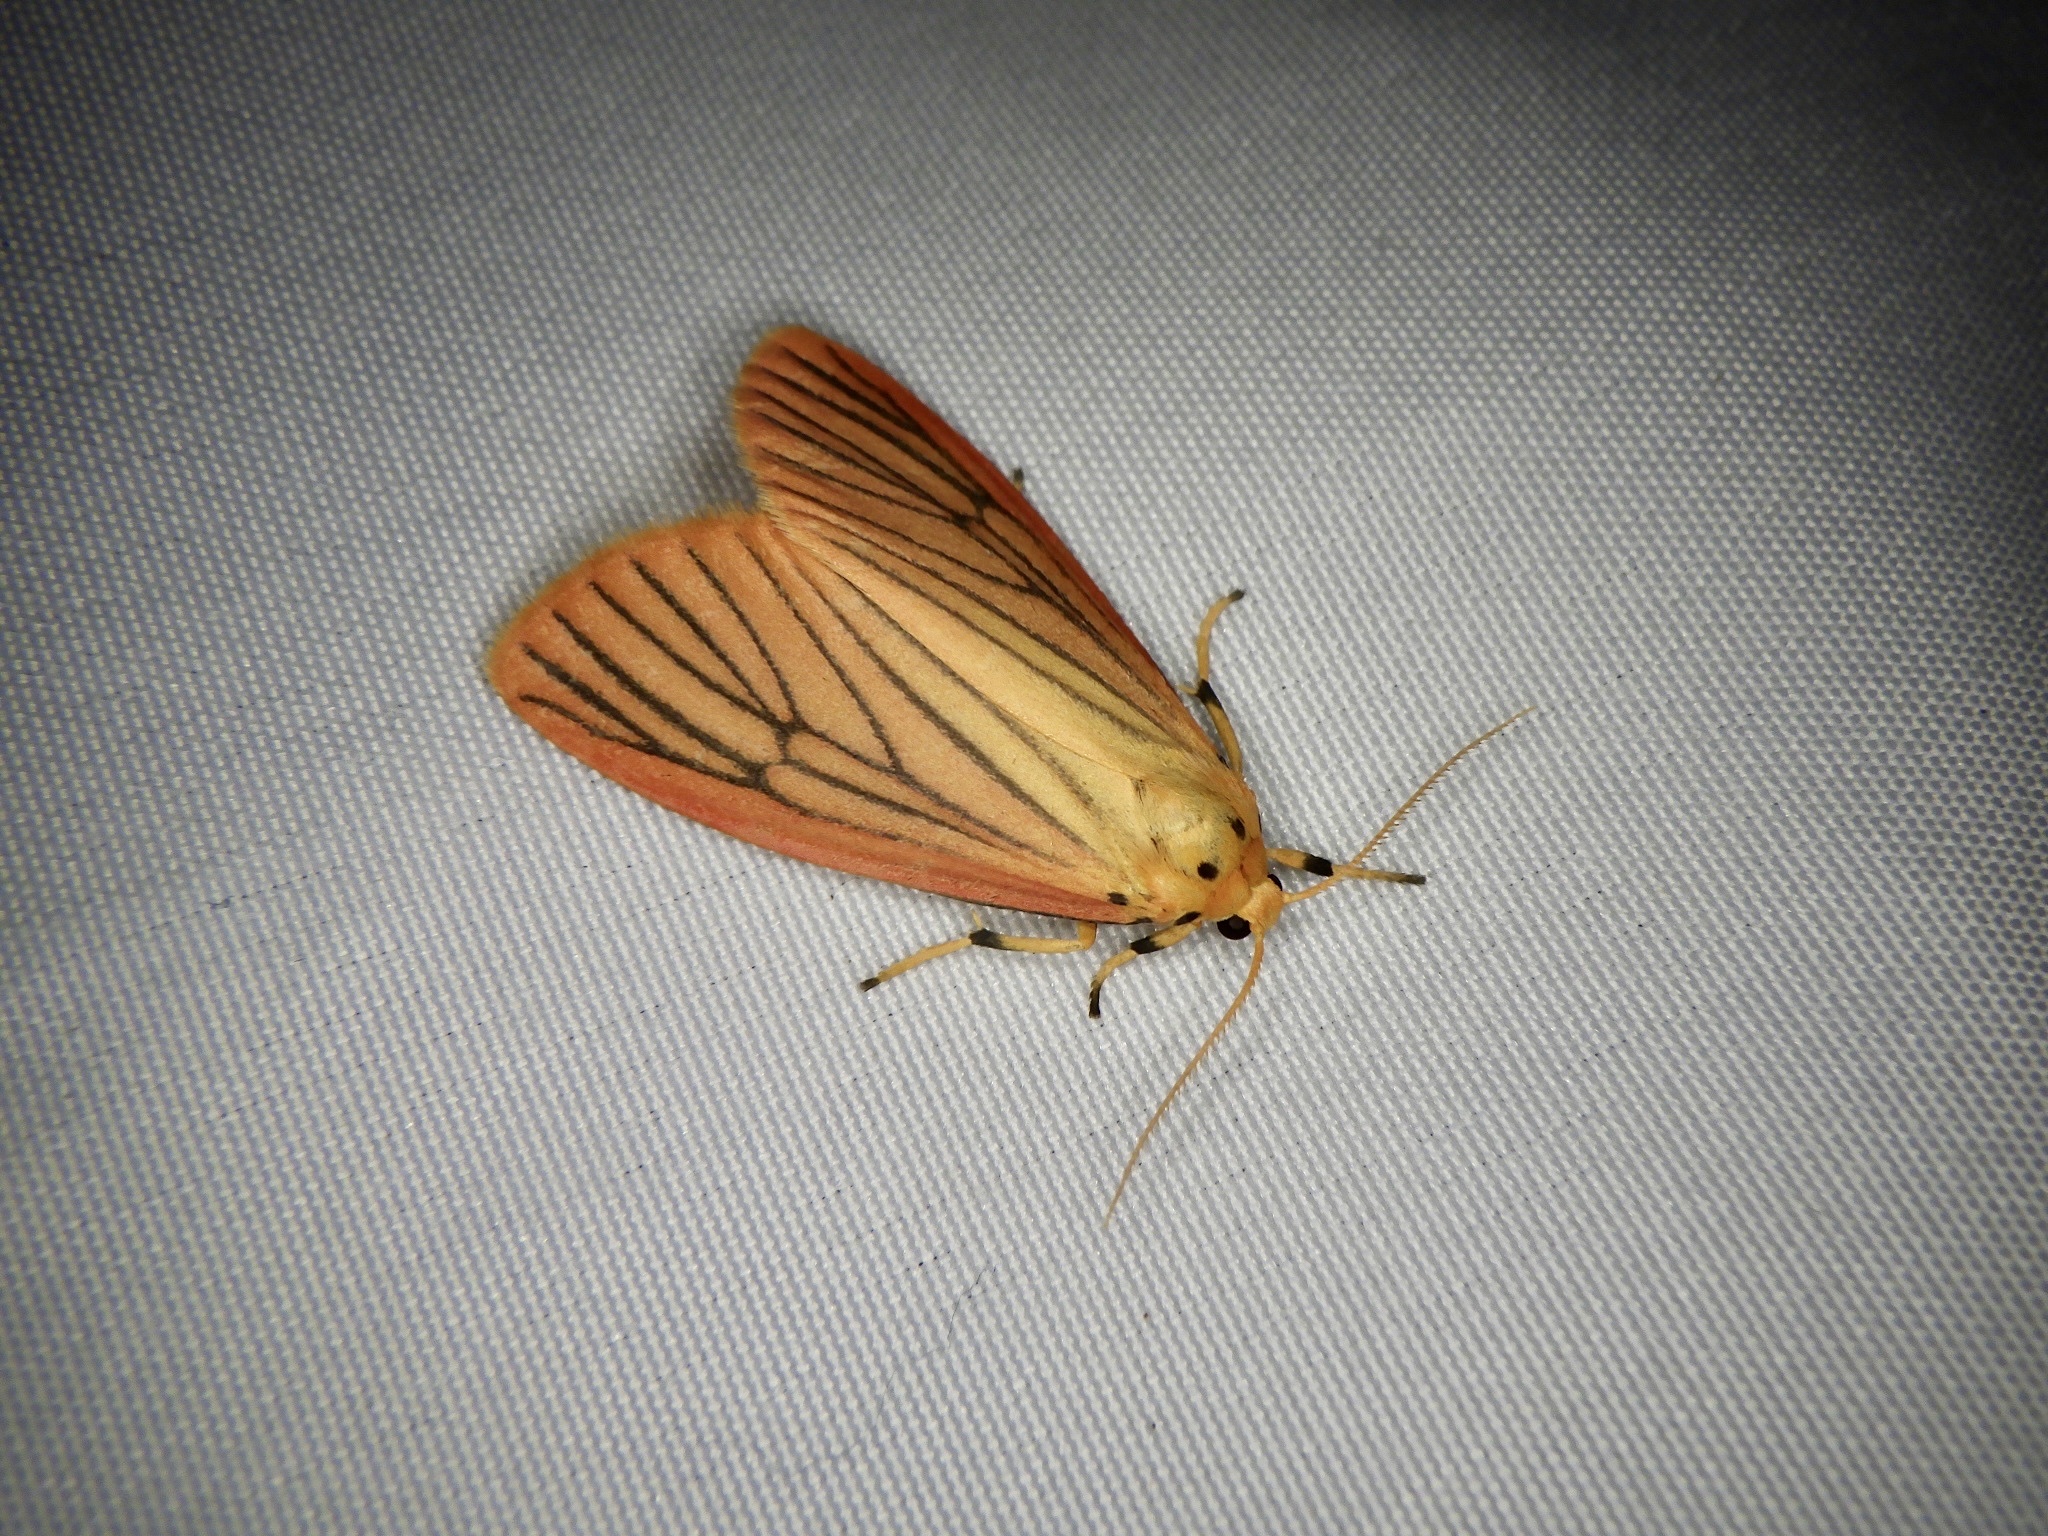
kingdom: Animalia
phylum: Arthropoda
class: Insecta
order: Lepidoptera
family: Erebidae
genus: Melanaema
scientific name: Melanaema venata
